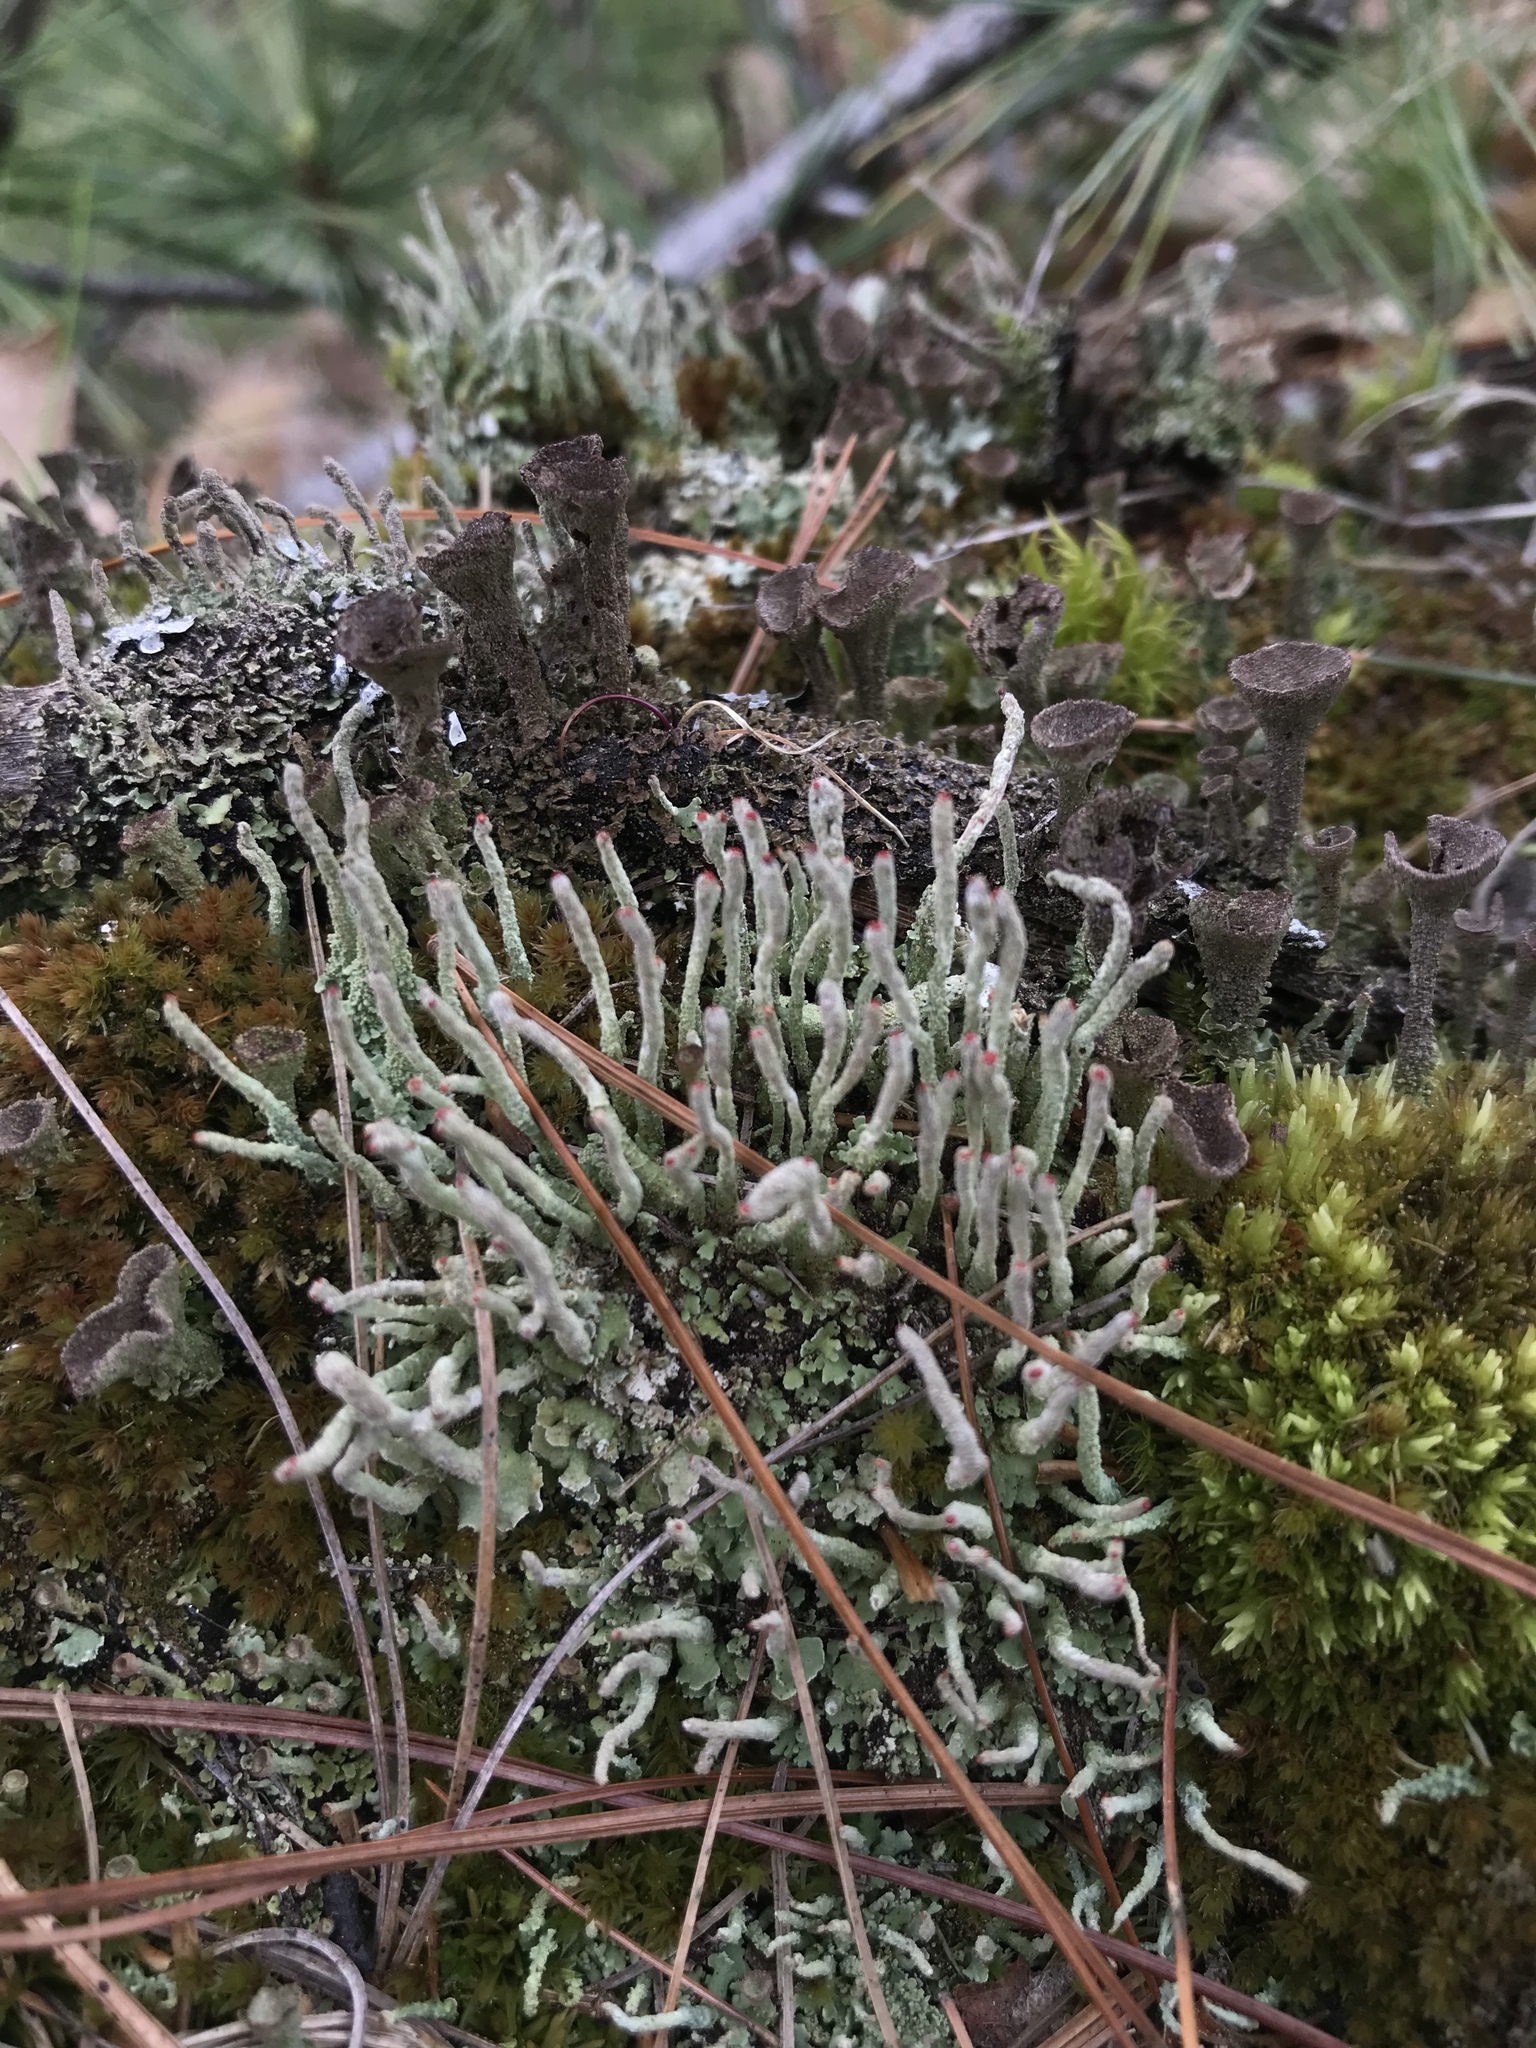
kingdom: Fungi
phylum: Ascomycota
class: Lecanoromycetes
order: Lecanorales
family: Cladoniaceae
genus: Cladonia
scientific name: Cladonia macilenta
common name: Lipstick powderhorn
